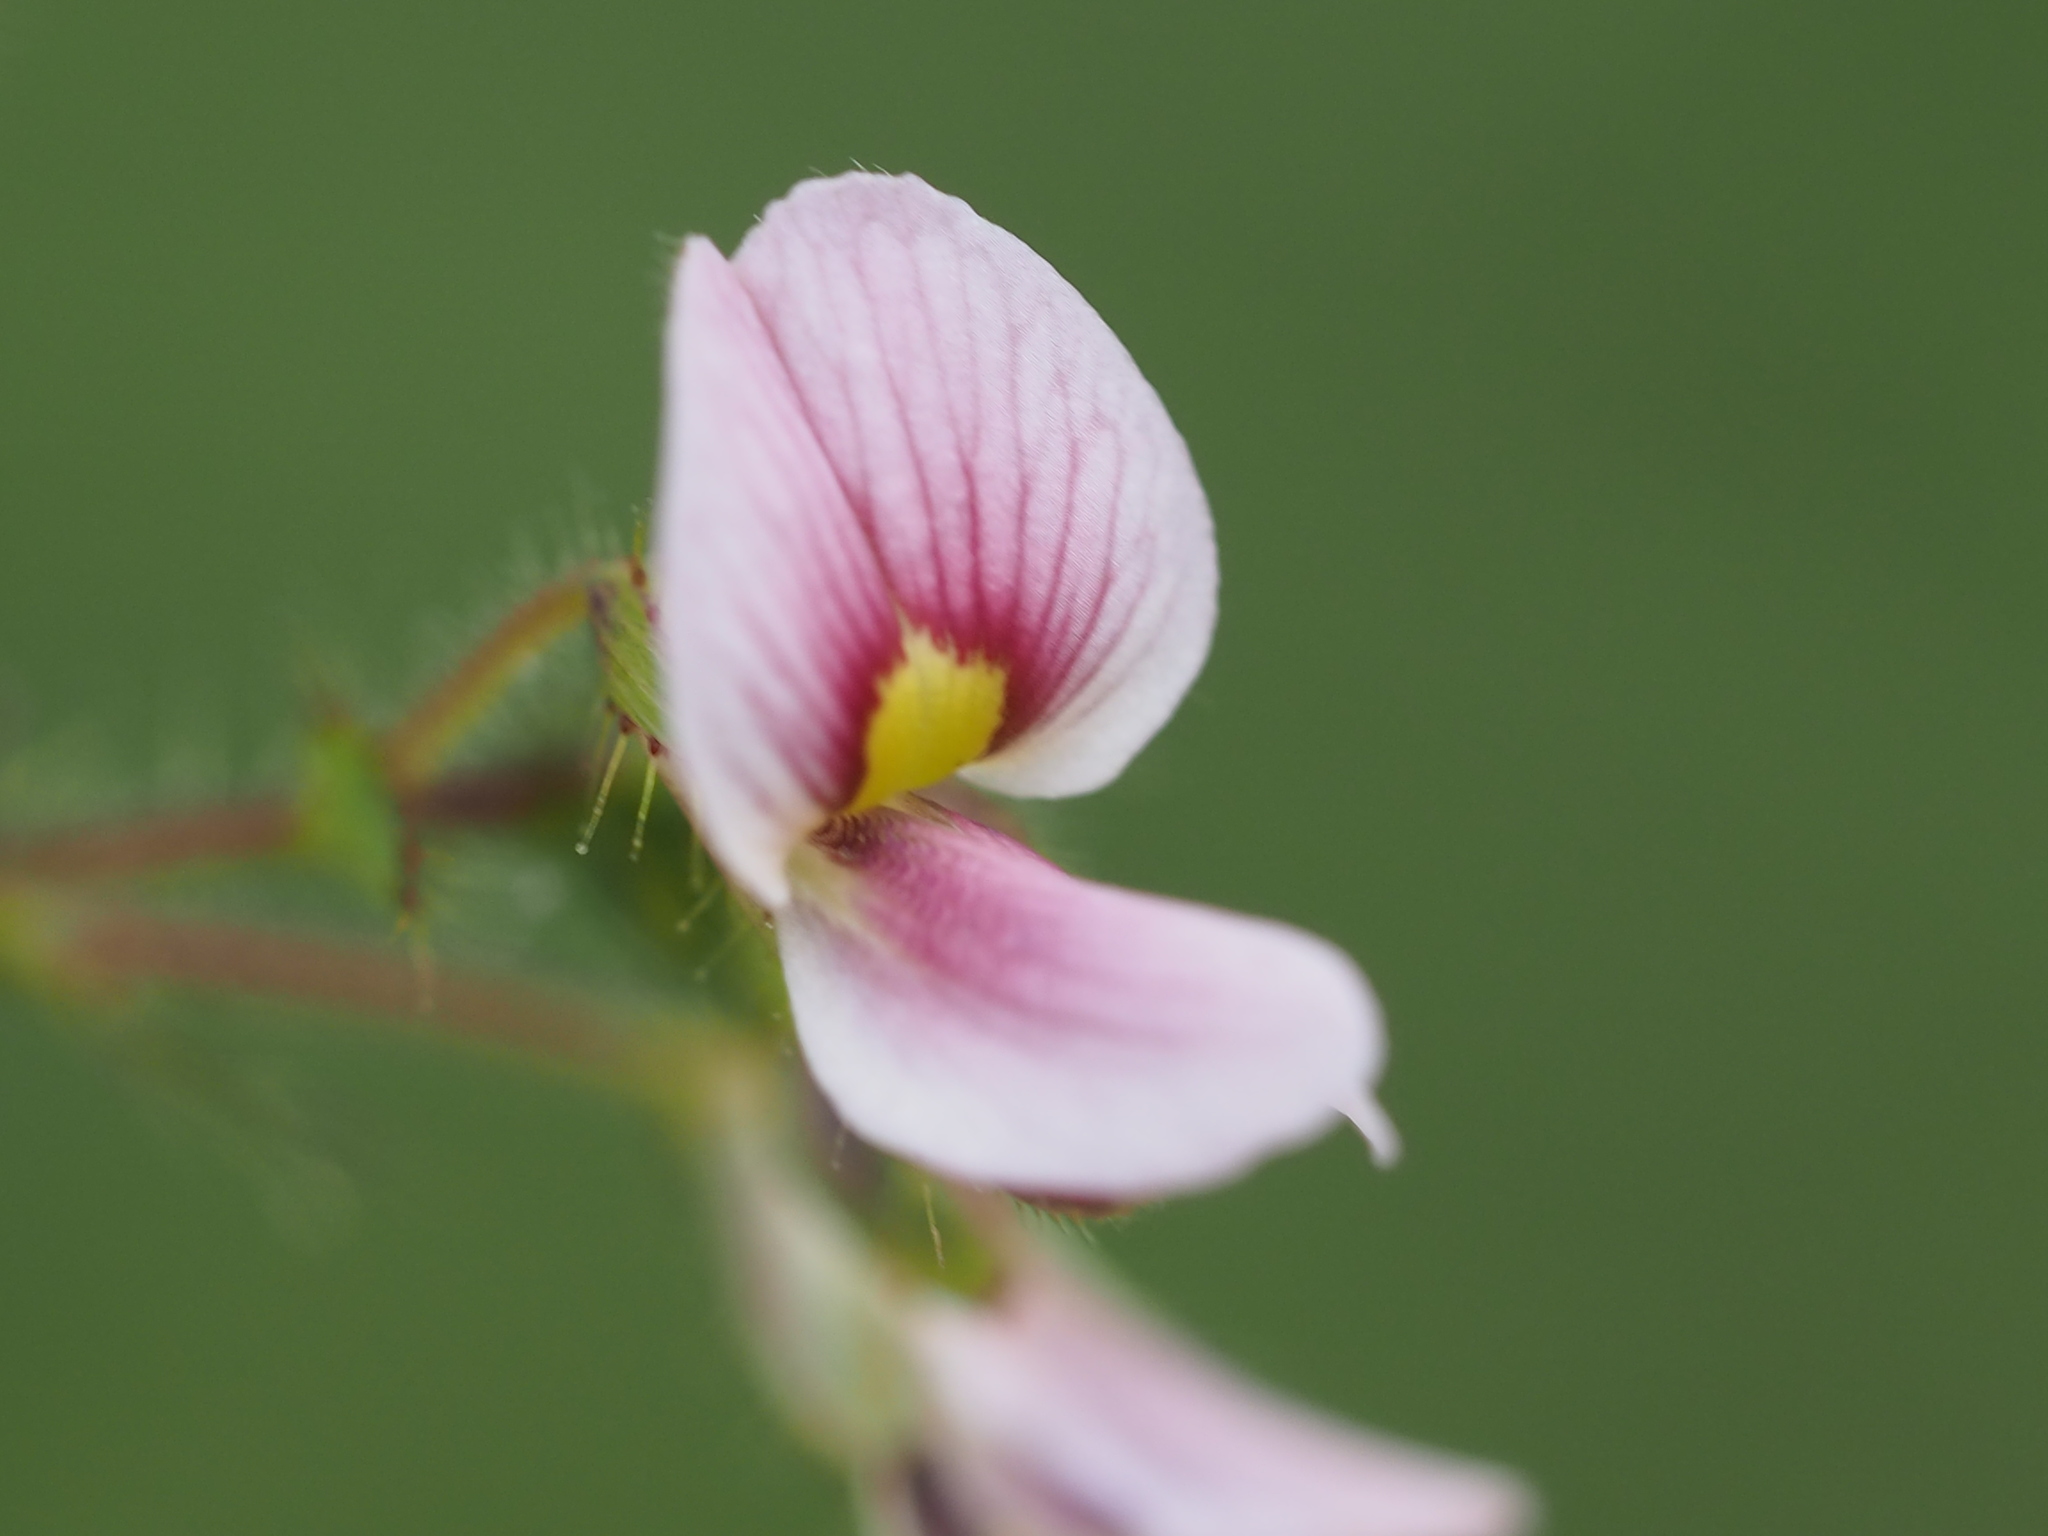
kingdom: Plantae
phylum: Tracheophyta
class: Magnoliopsida
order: Fabales
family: Fabaceae
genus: Aeschynomene
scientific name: Aeschynomene americana
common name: Joint-vetch
